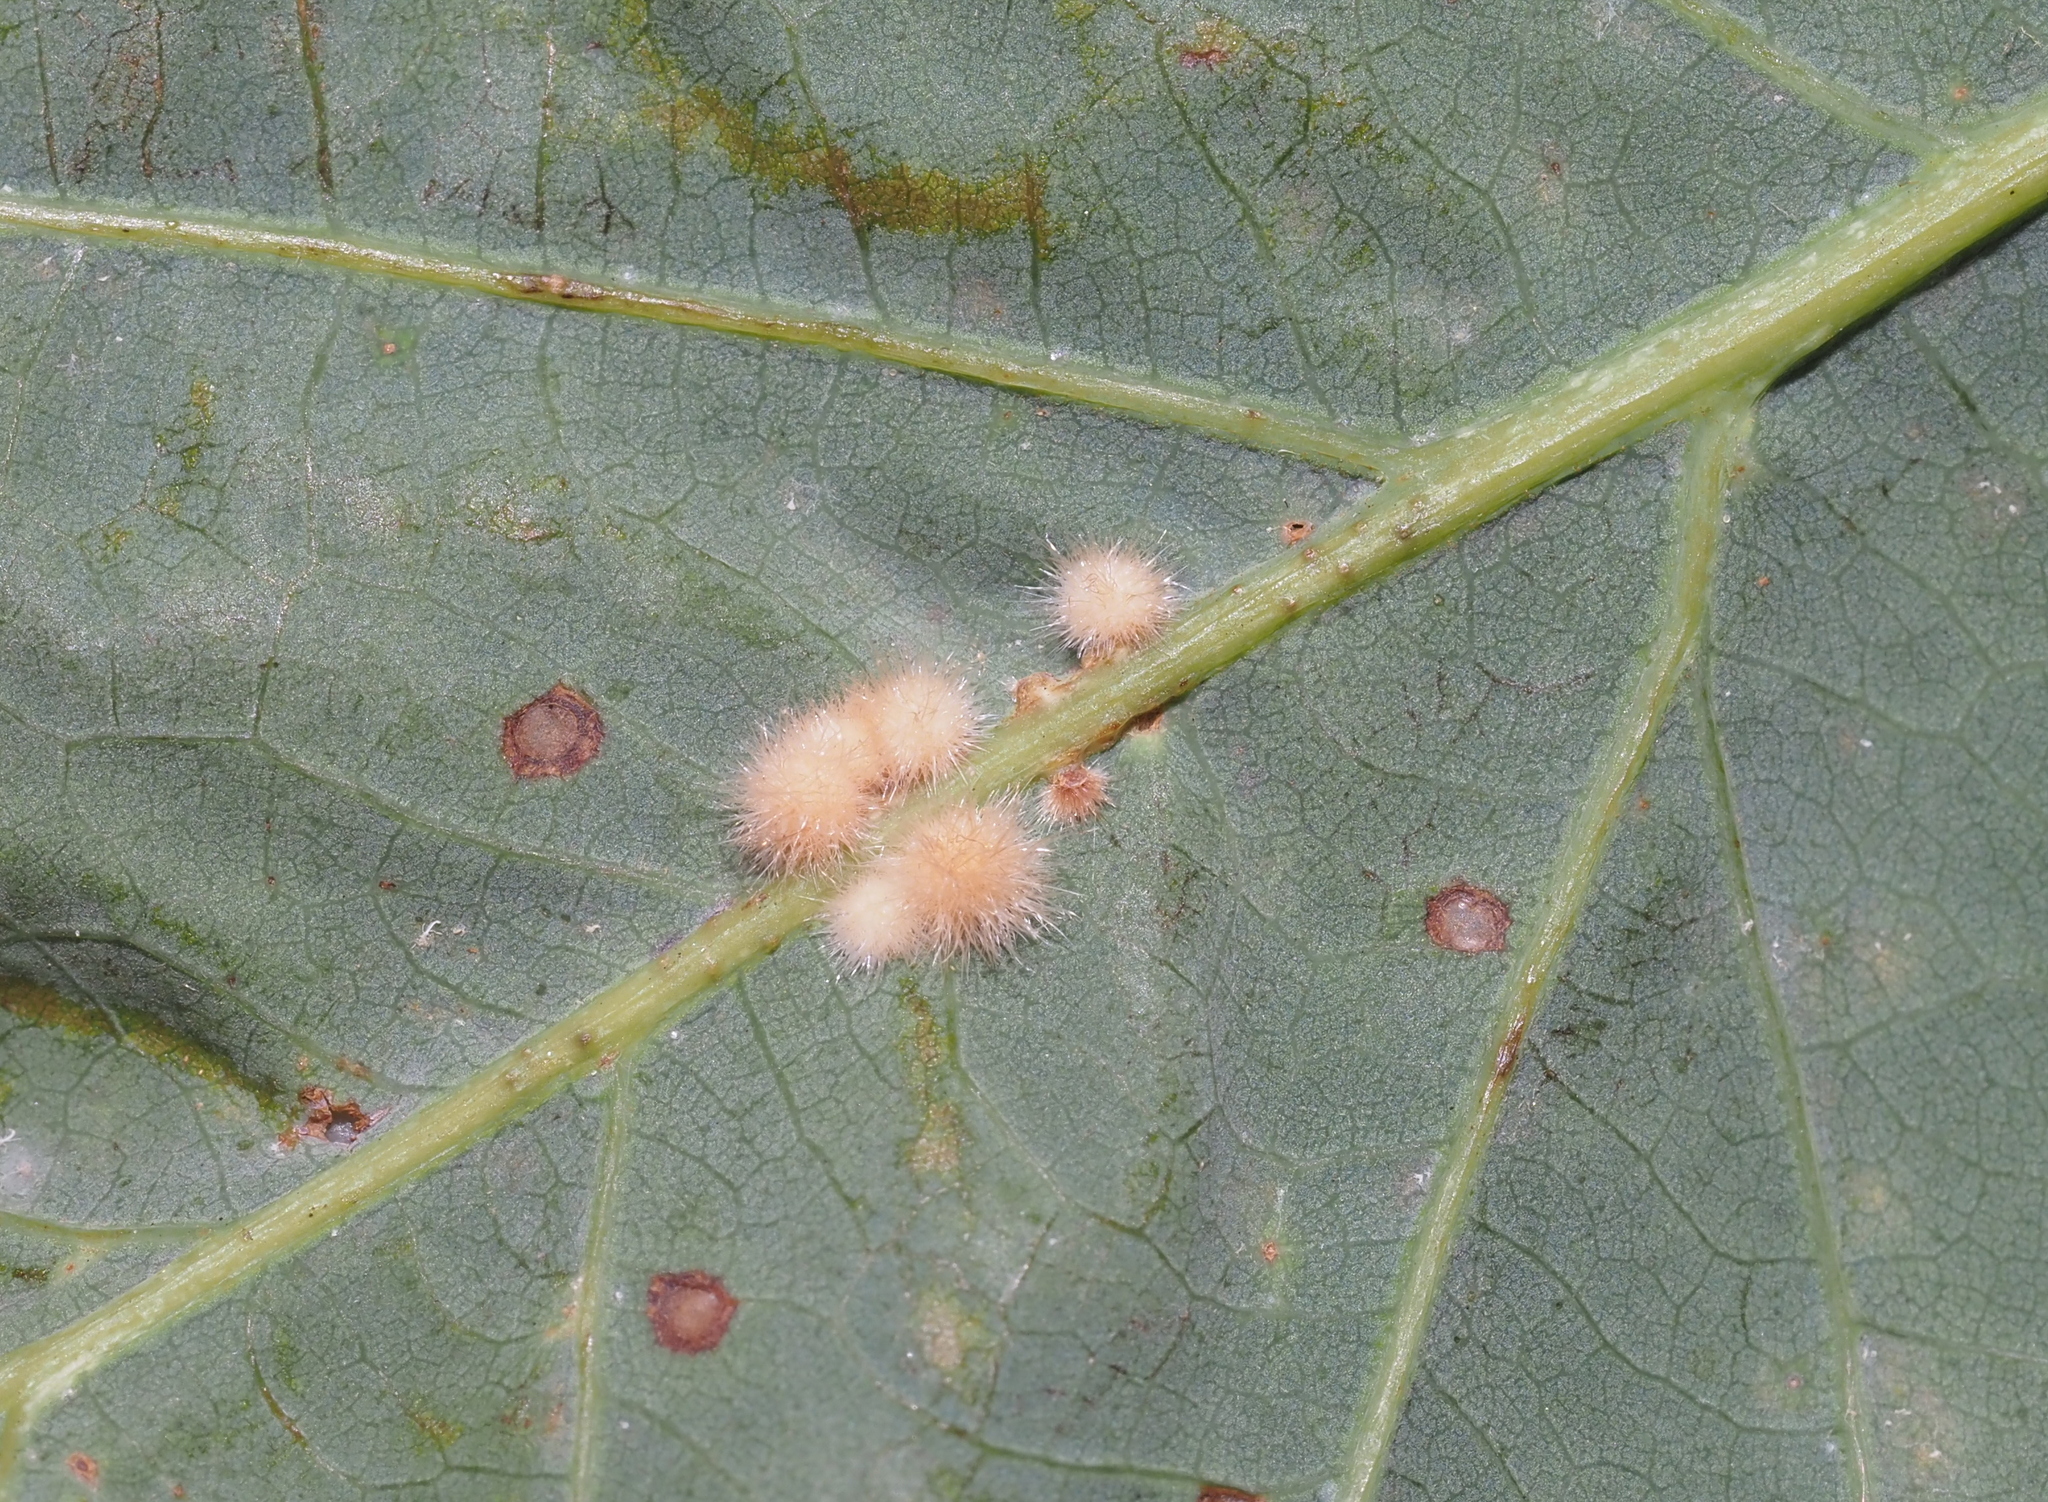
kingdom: Animalia
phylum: Arthropoda
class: Insecta
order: Hymenoptera
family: Cynipidae
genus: Andricus
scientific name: Andricus
